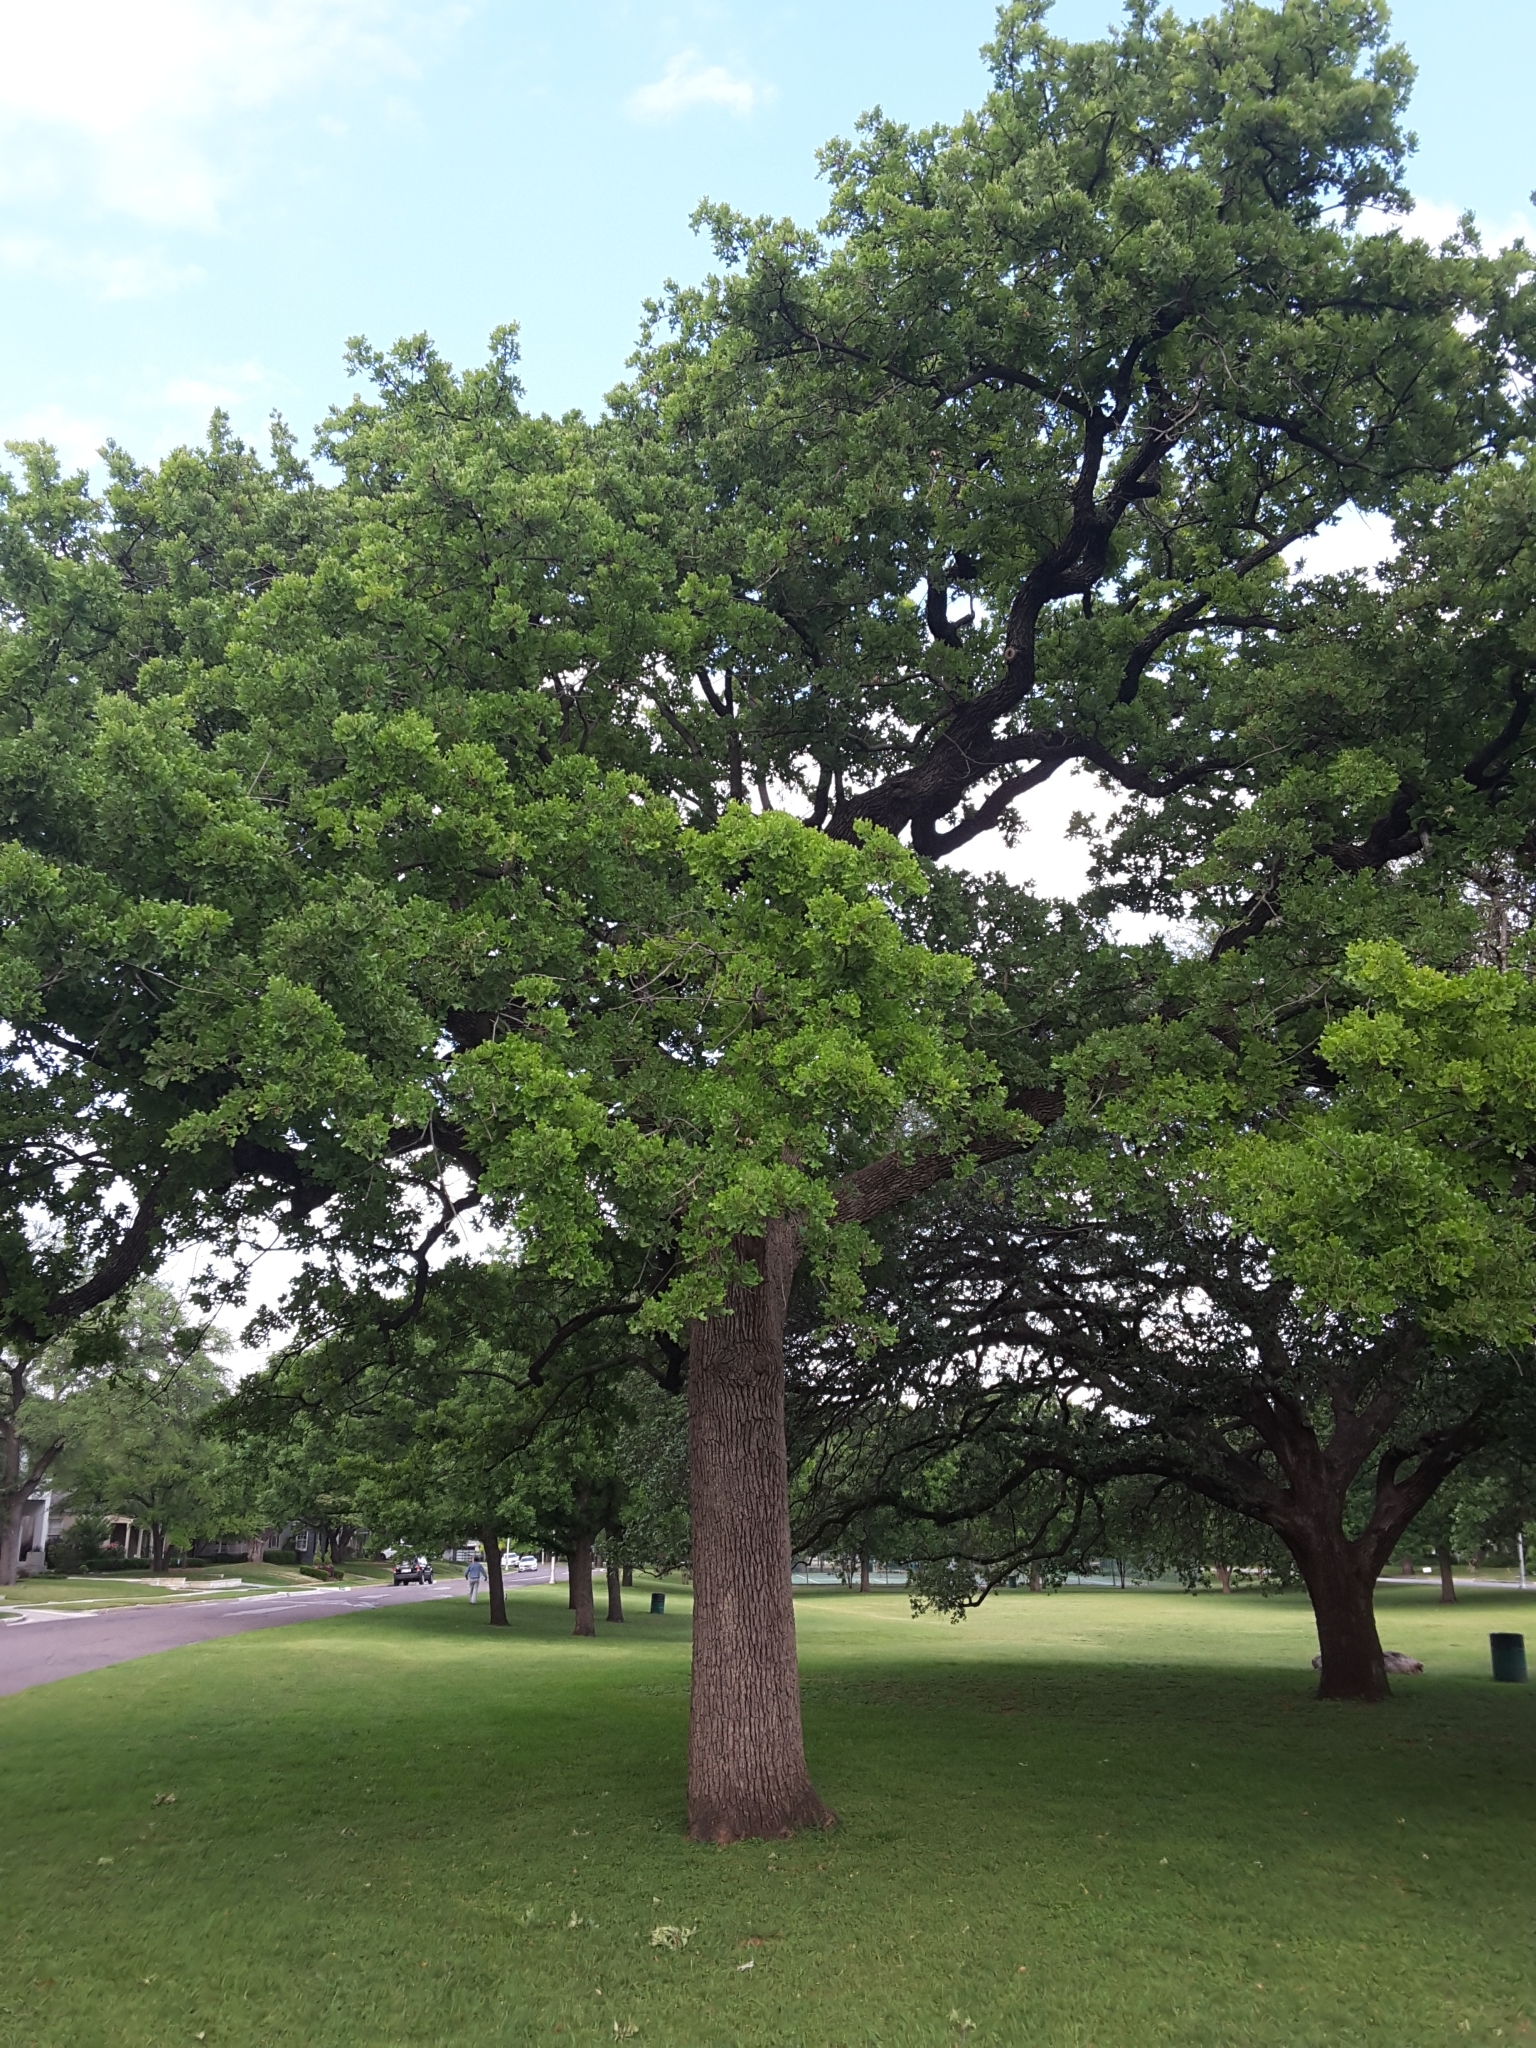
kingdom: Plantae
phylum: Tracheophyta
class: Magnoliopsida
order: Fagales
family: Fagaceae
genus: Quercus
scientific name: Quercus margaretiae
